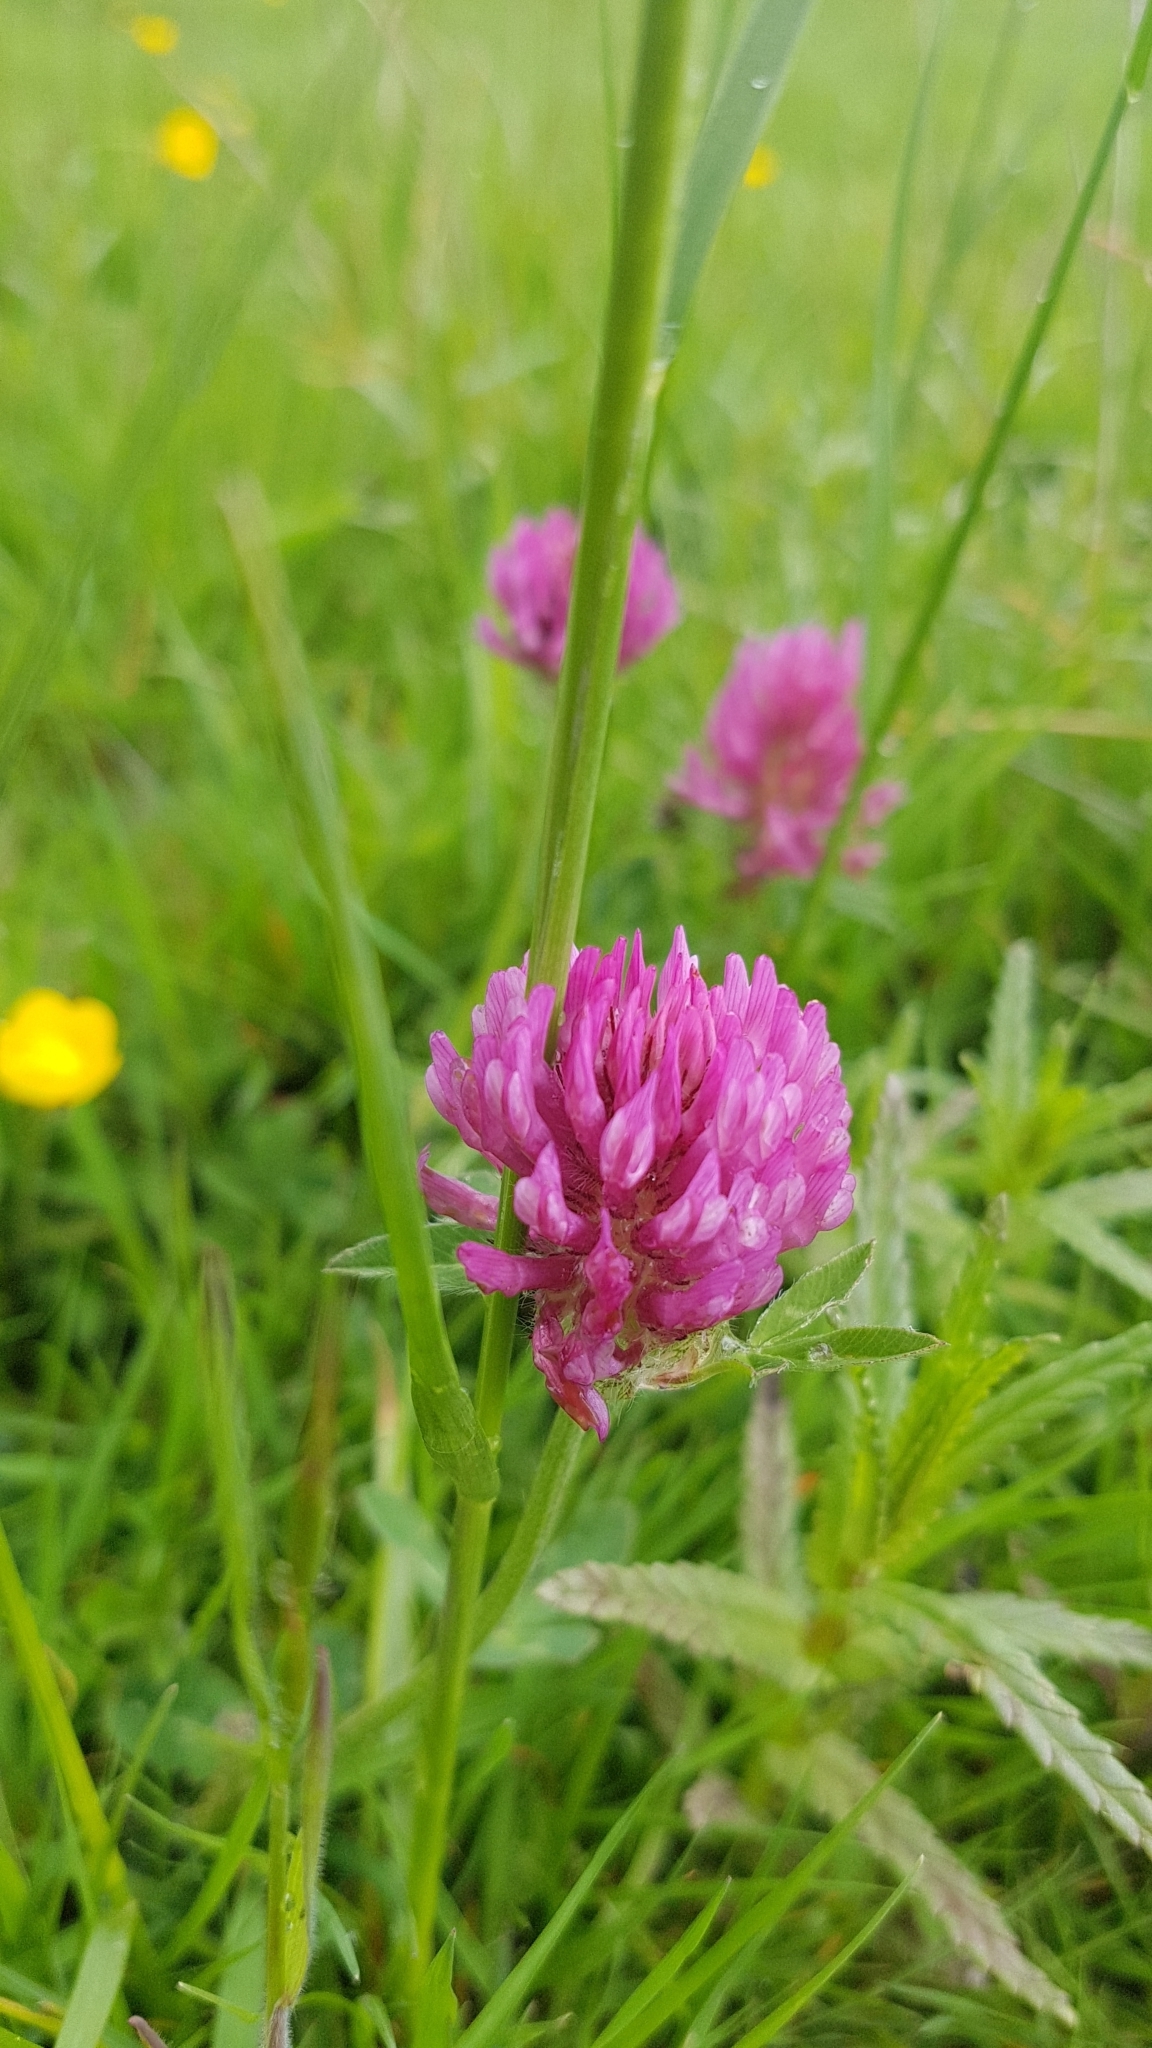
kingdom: Plantae
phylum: Tracheophyta
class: Magnoliopsida
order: Fabales
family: Fabaceae
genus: Trifolium
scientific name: Trifolium pratense
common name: Red clover
